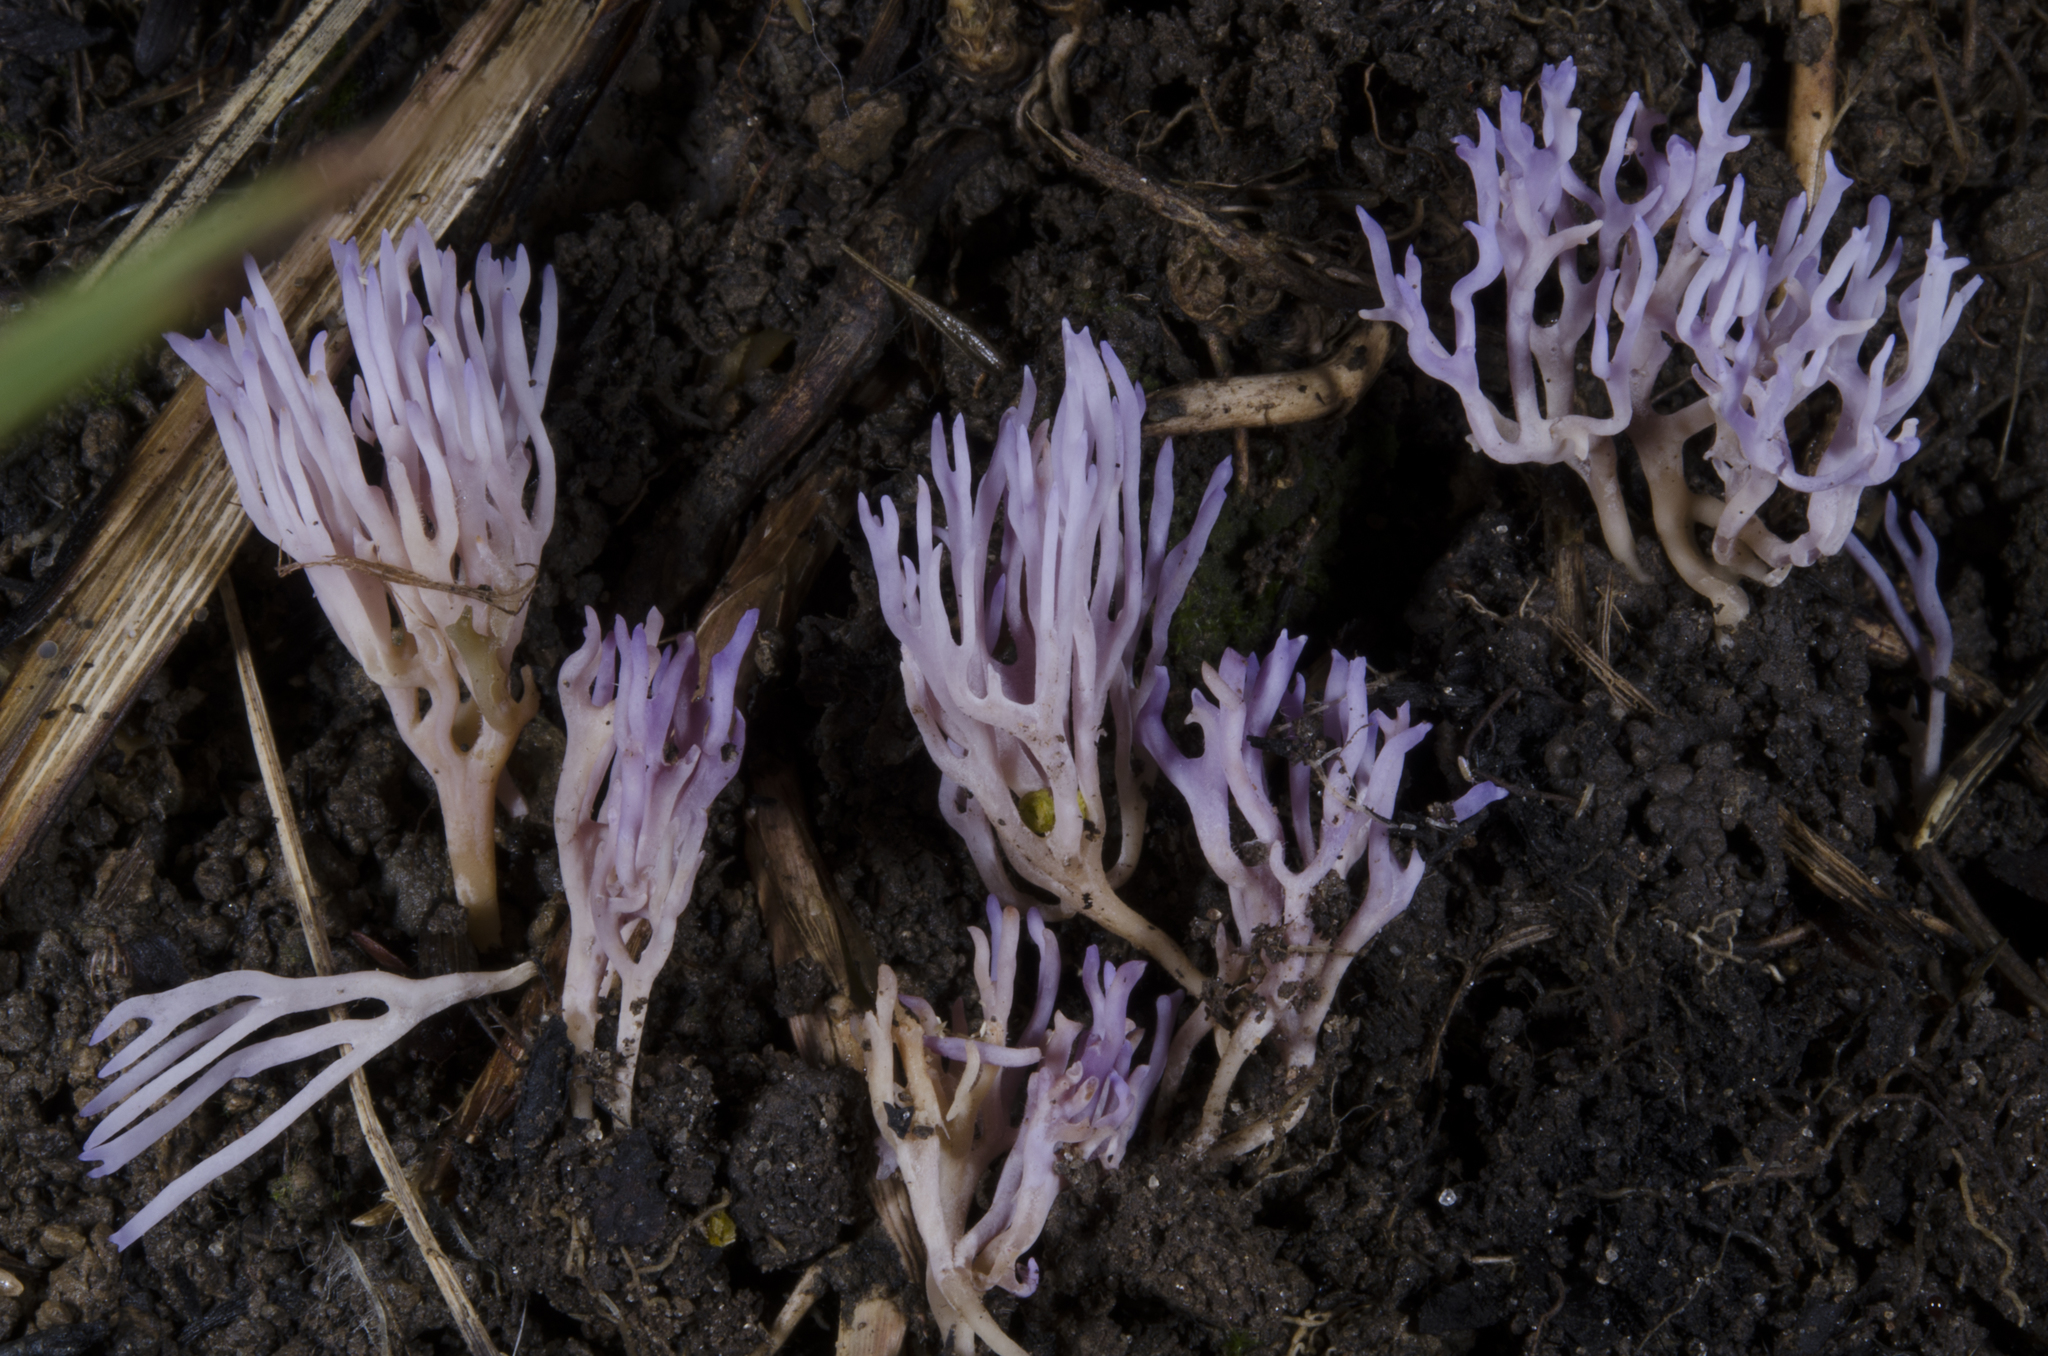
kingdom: Fungi
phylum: Basidiomycota
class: Agaricomycetes
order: Agaricales
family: Clavariaceae
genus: Ramariopsis
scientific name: Ramariopsis pulchella
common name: Lilac coral
